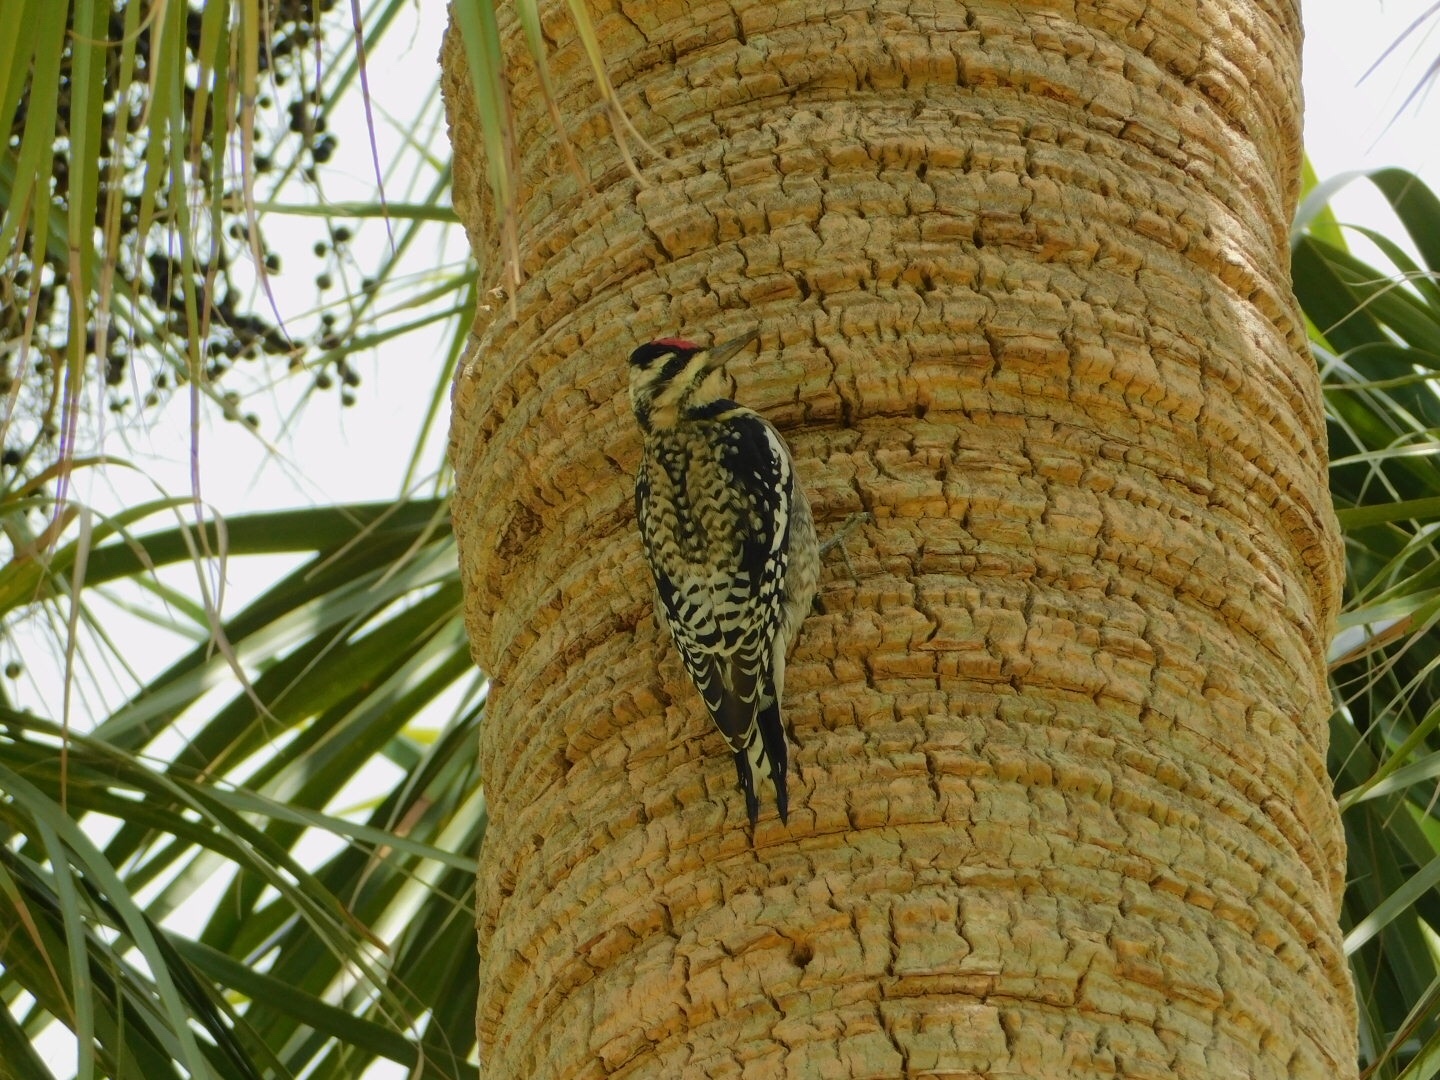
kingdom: Animalia
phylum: Chordata
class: Aves
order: Piciformes
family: Picidae
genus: Sphyrapicus
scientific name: Sphyrapicus varius
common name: Yellow-bellied sapsucker
